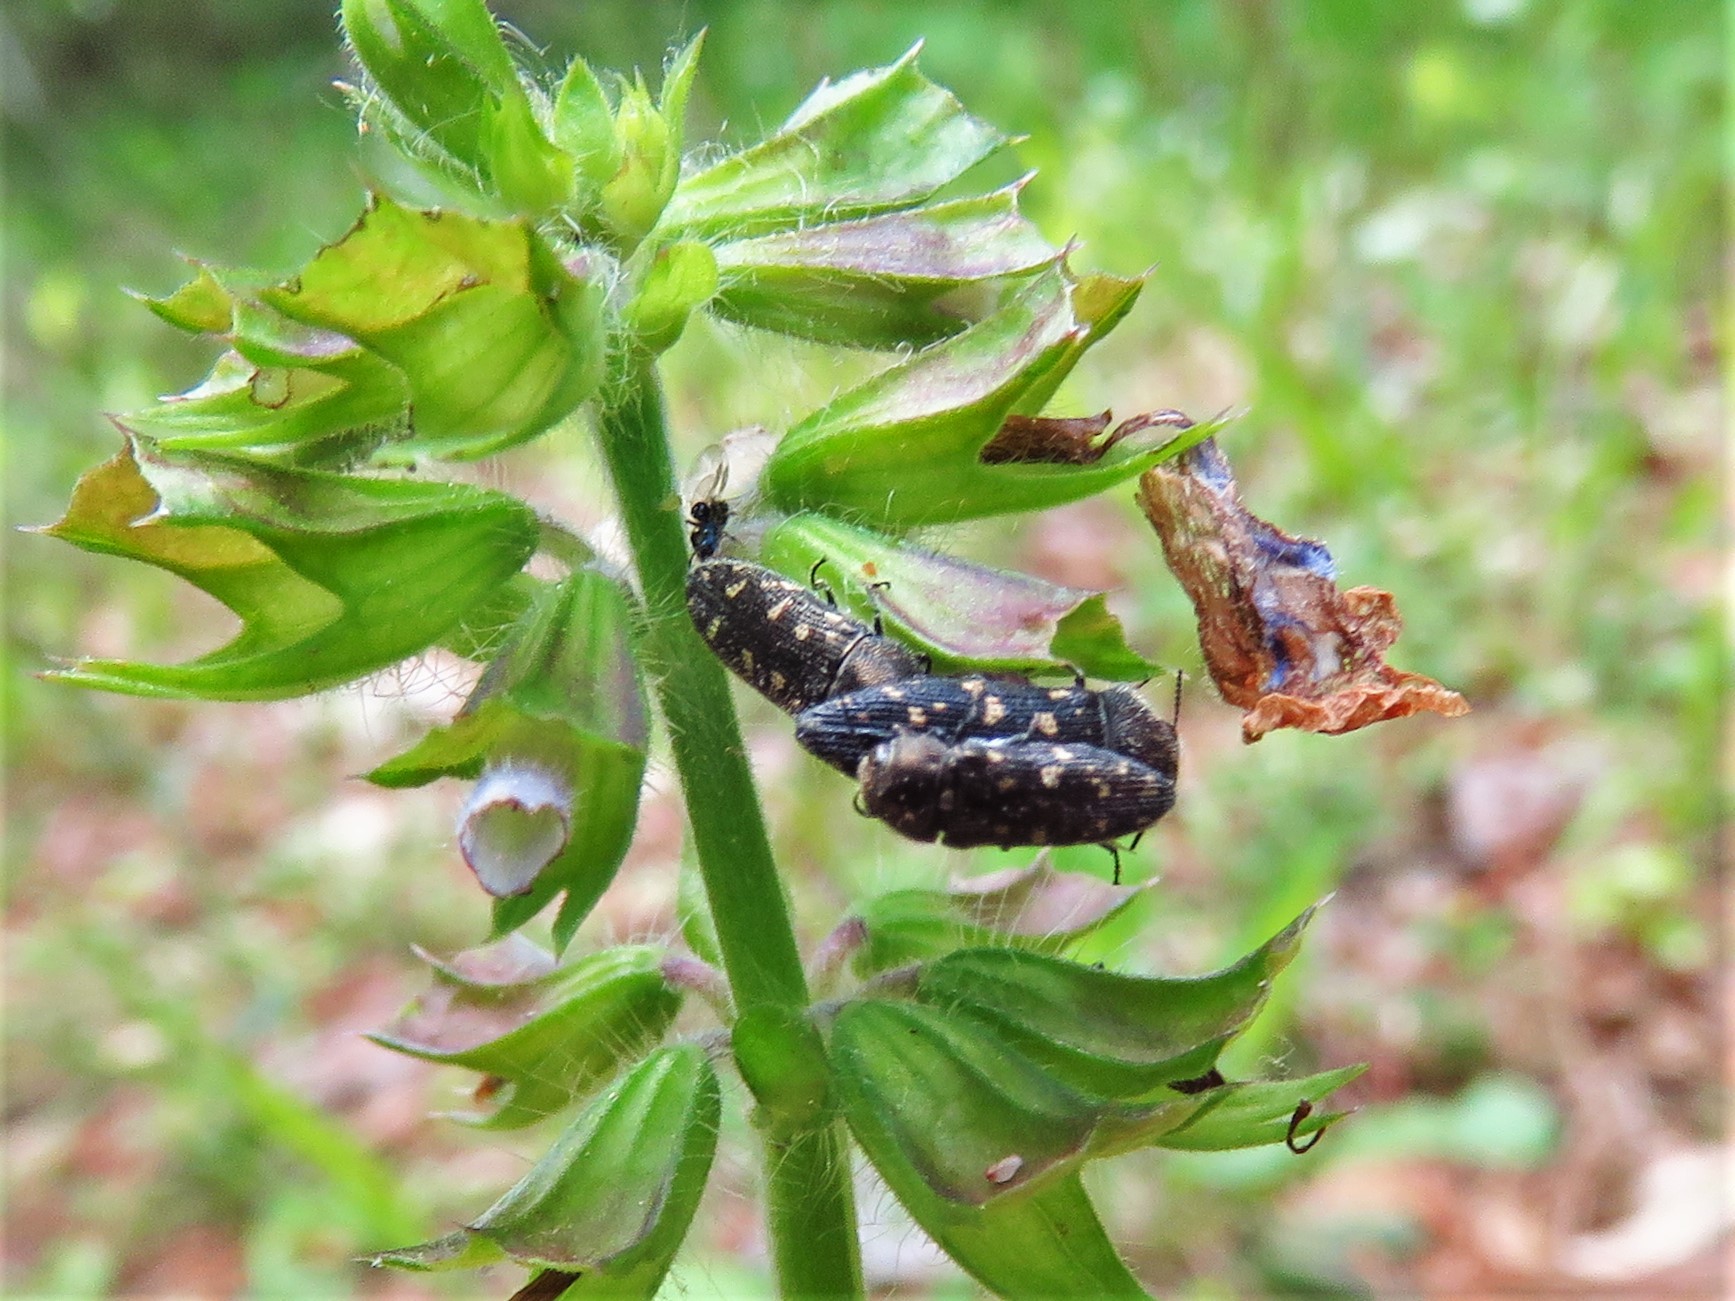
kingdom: Animalia
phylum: Arthropoda
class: Insecta
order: Coleoptera
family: Buprestidae
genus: Acmaeodera
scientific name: Acmaeodera tubulus
